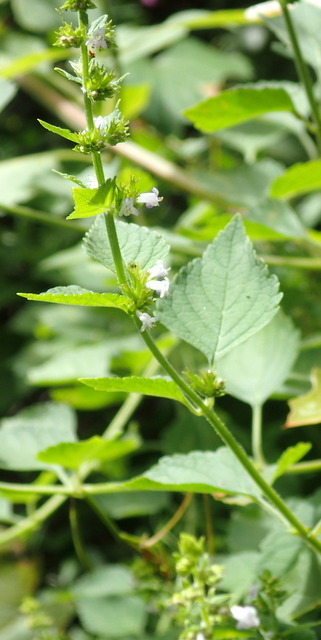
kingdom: Plantae
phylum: Tracheophyta
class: Magnoliopsida
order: Lamiales
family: Lamiaceae
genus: Cantinoa
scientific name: Cantinoa mutabilis
